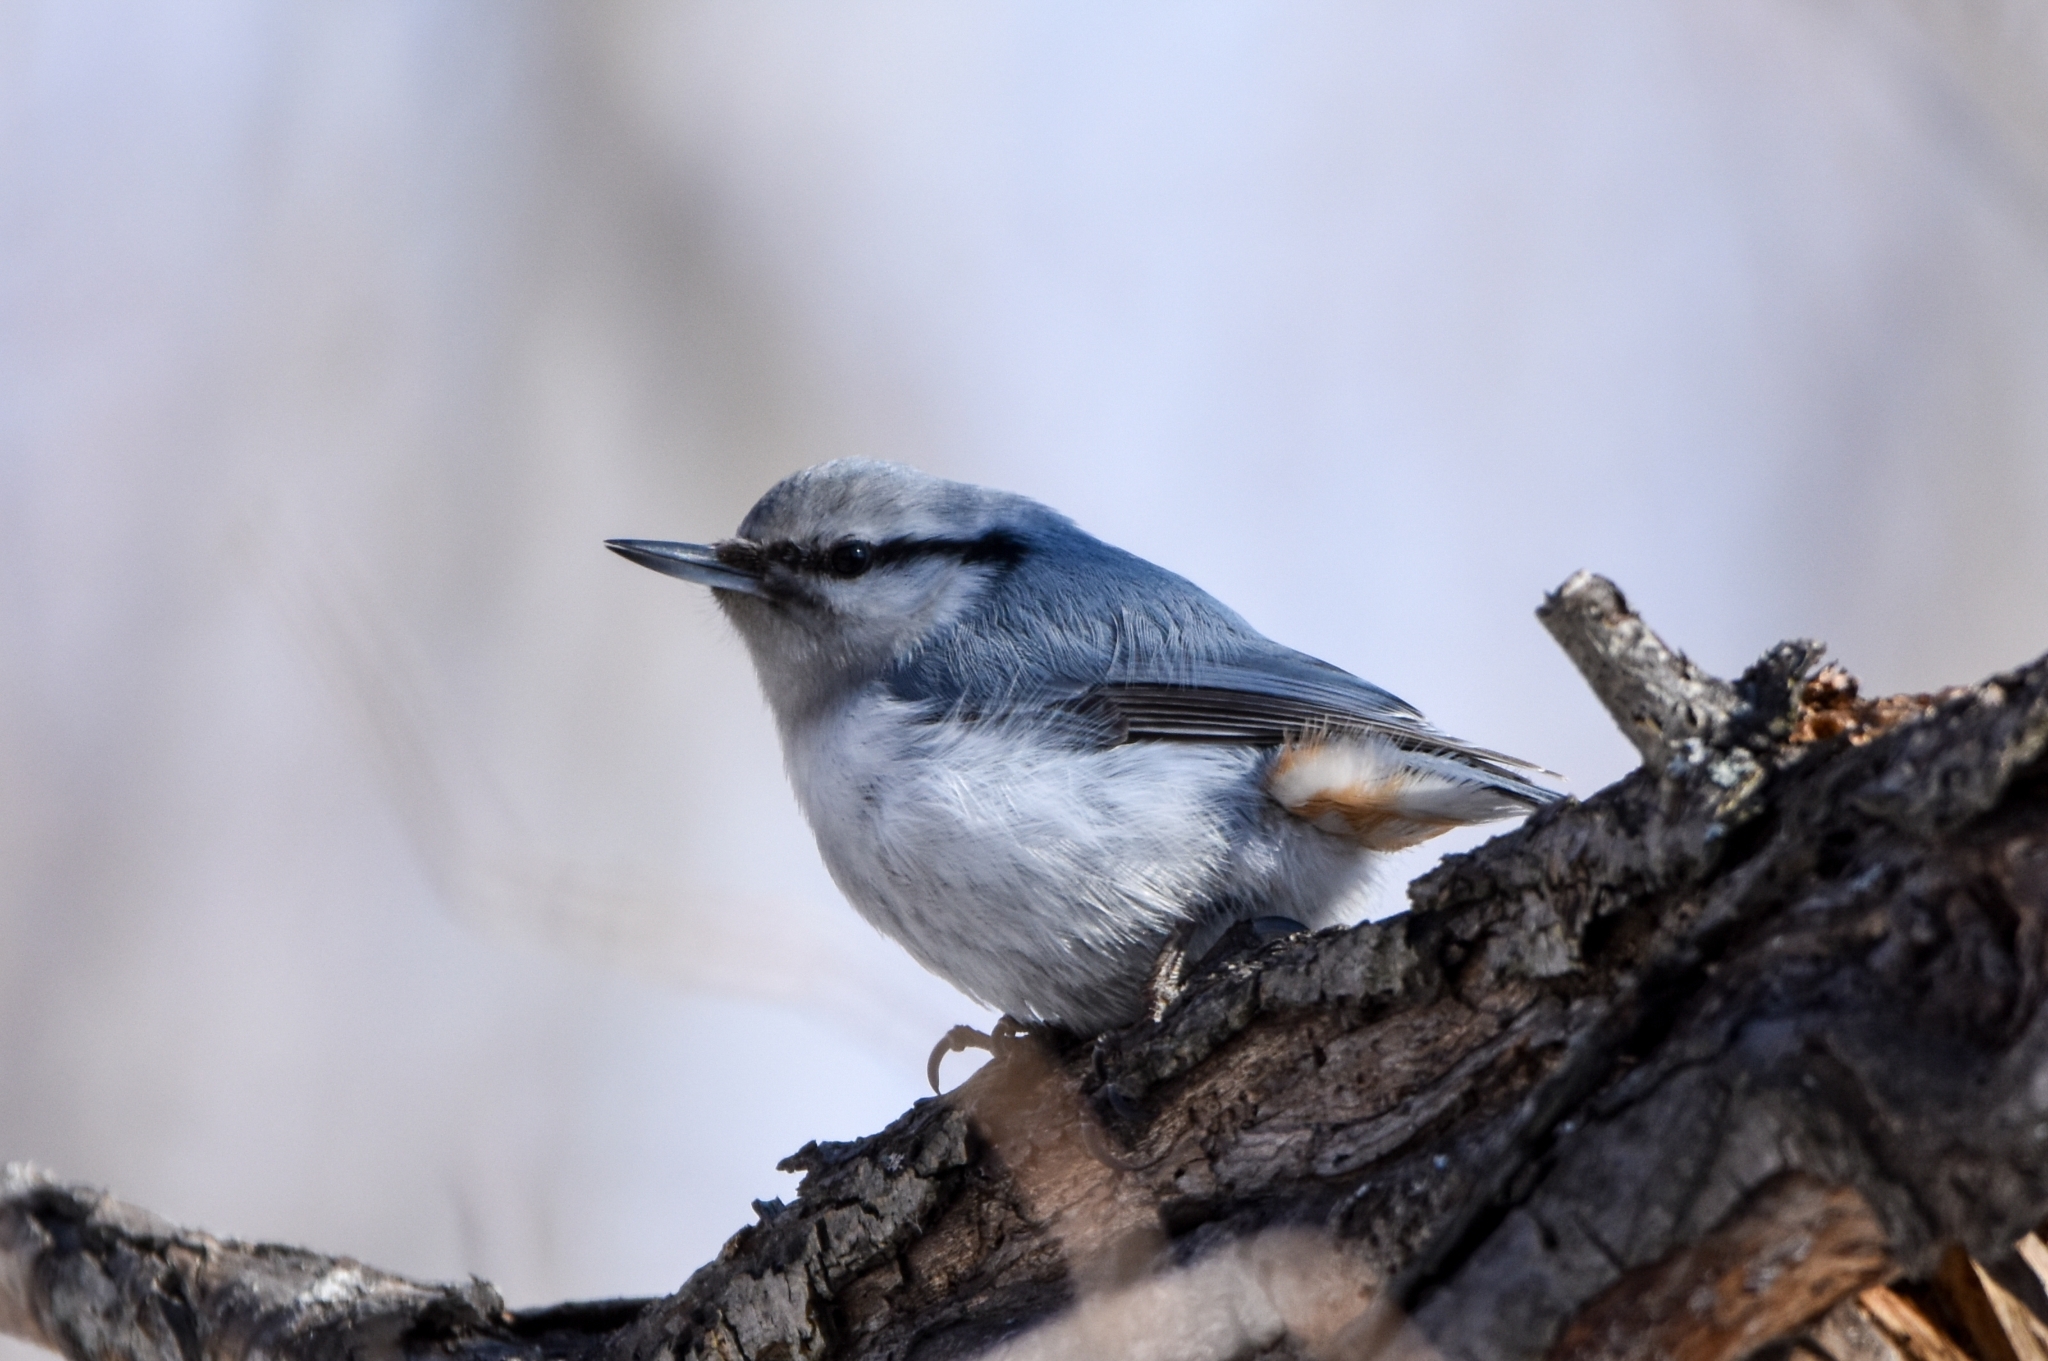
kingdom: Animalia
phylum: Chordata
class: Aves
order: Passeriformes
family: Sittidae
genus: Sitta
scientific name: Sitta europaea
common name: Eurasian nuthatch
